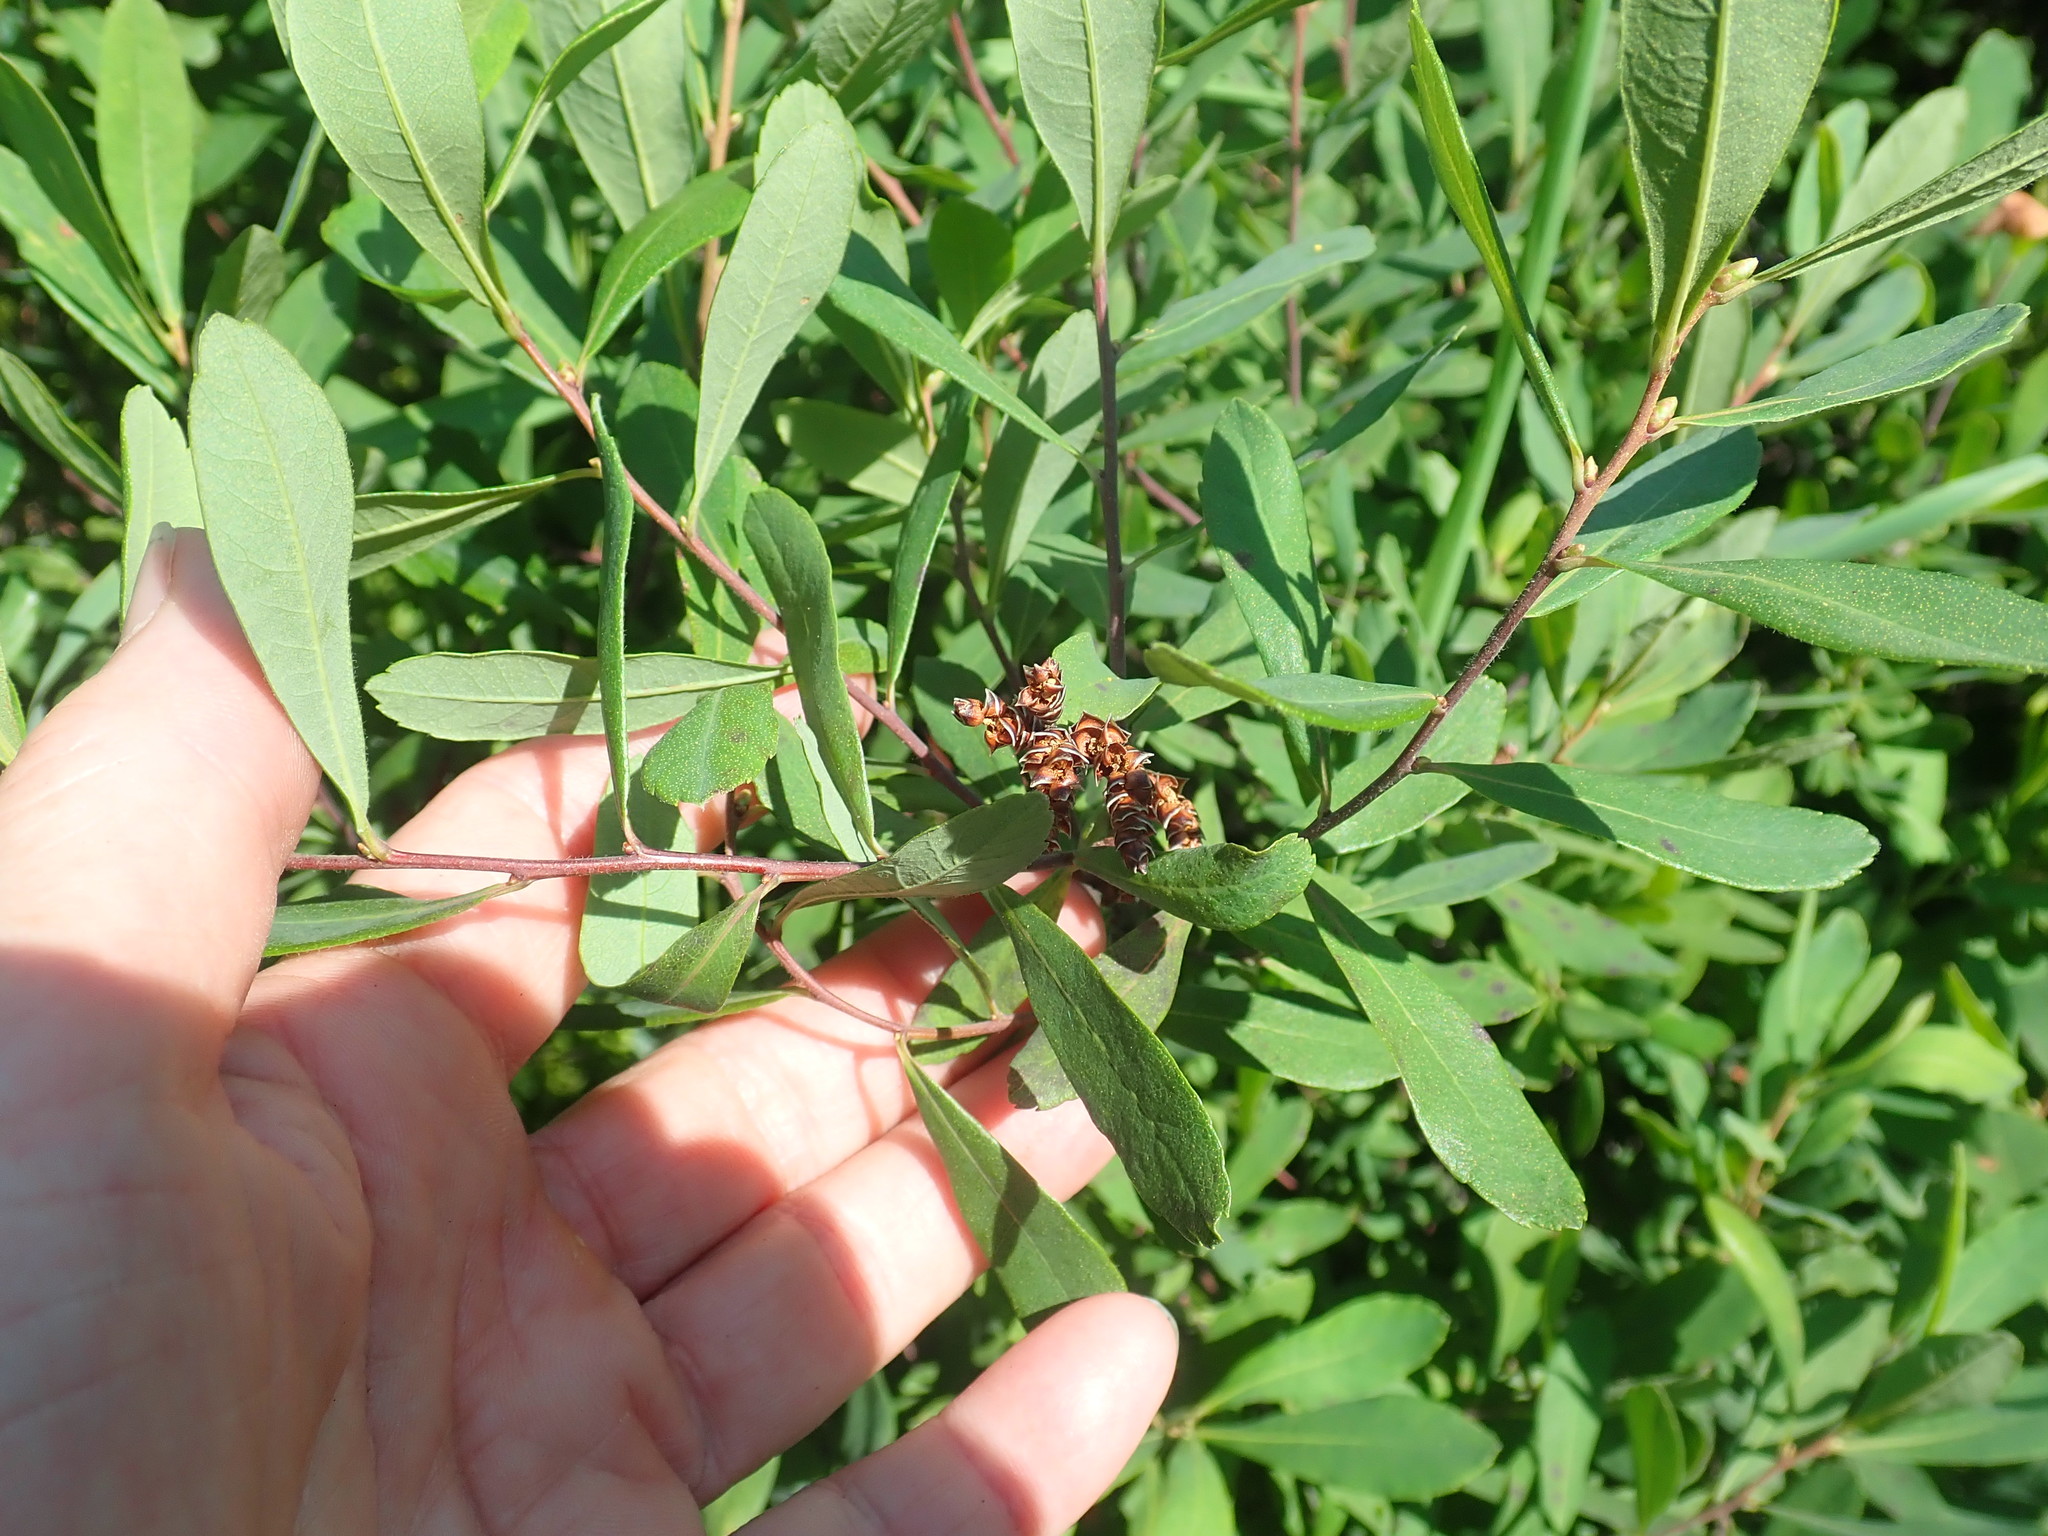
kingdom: Plantae
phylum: Tracheophyta
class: Magnoliopsida
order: Fagales
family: Myricaceae
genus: Myrica
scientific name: Myrica gale
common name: Sweet gale
